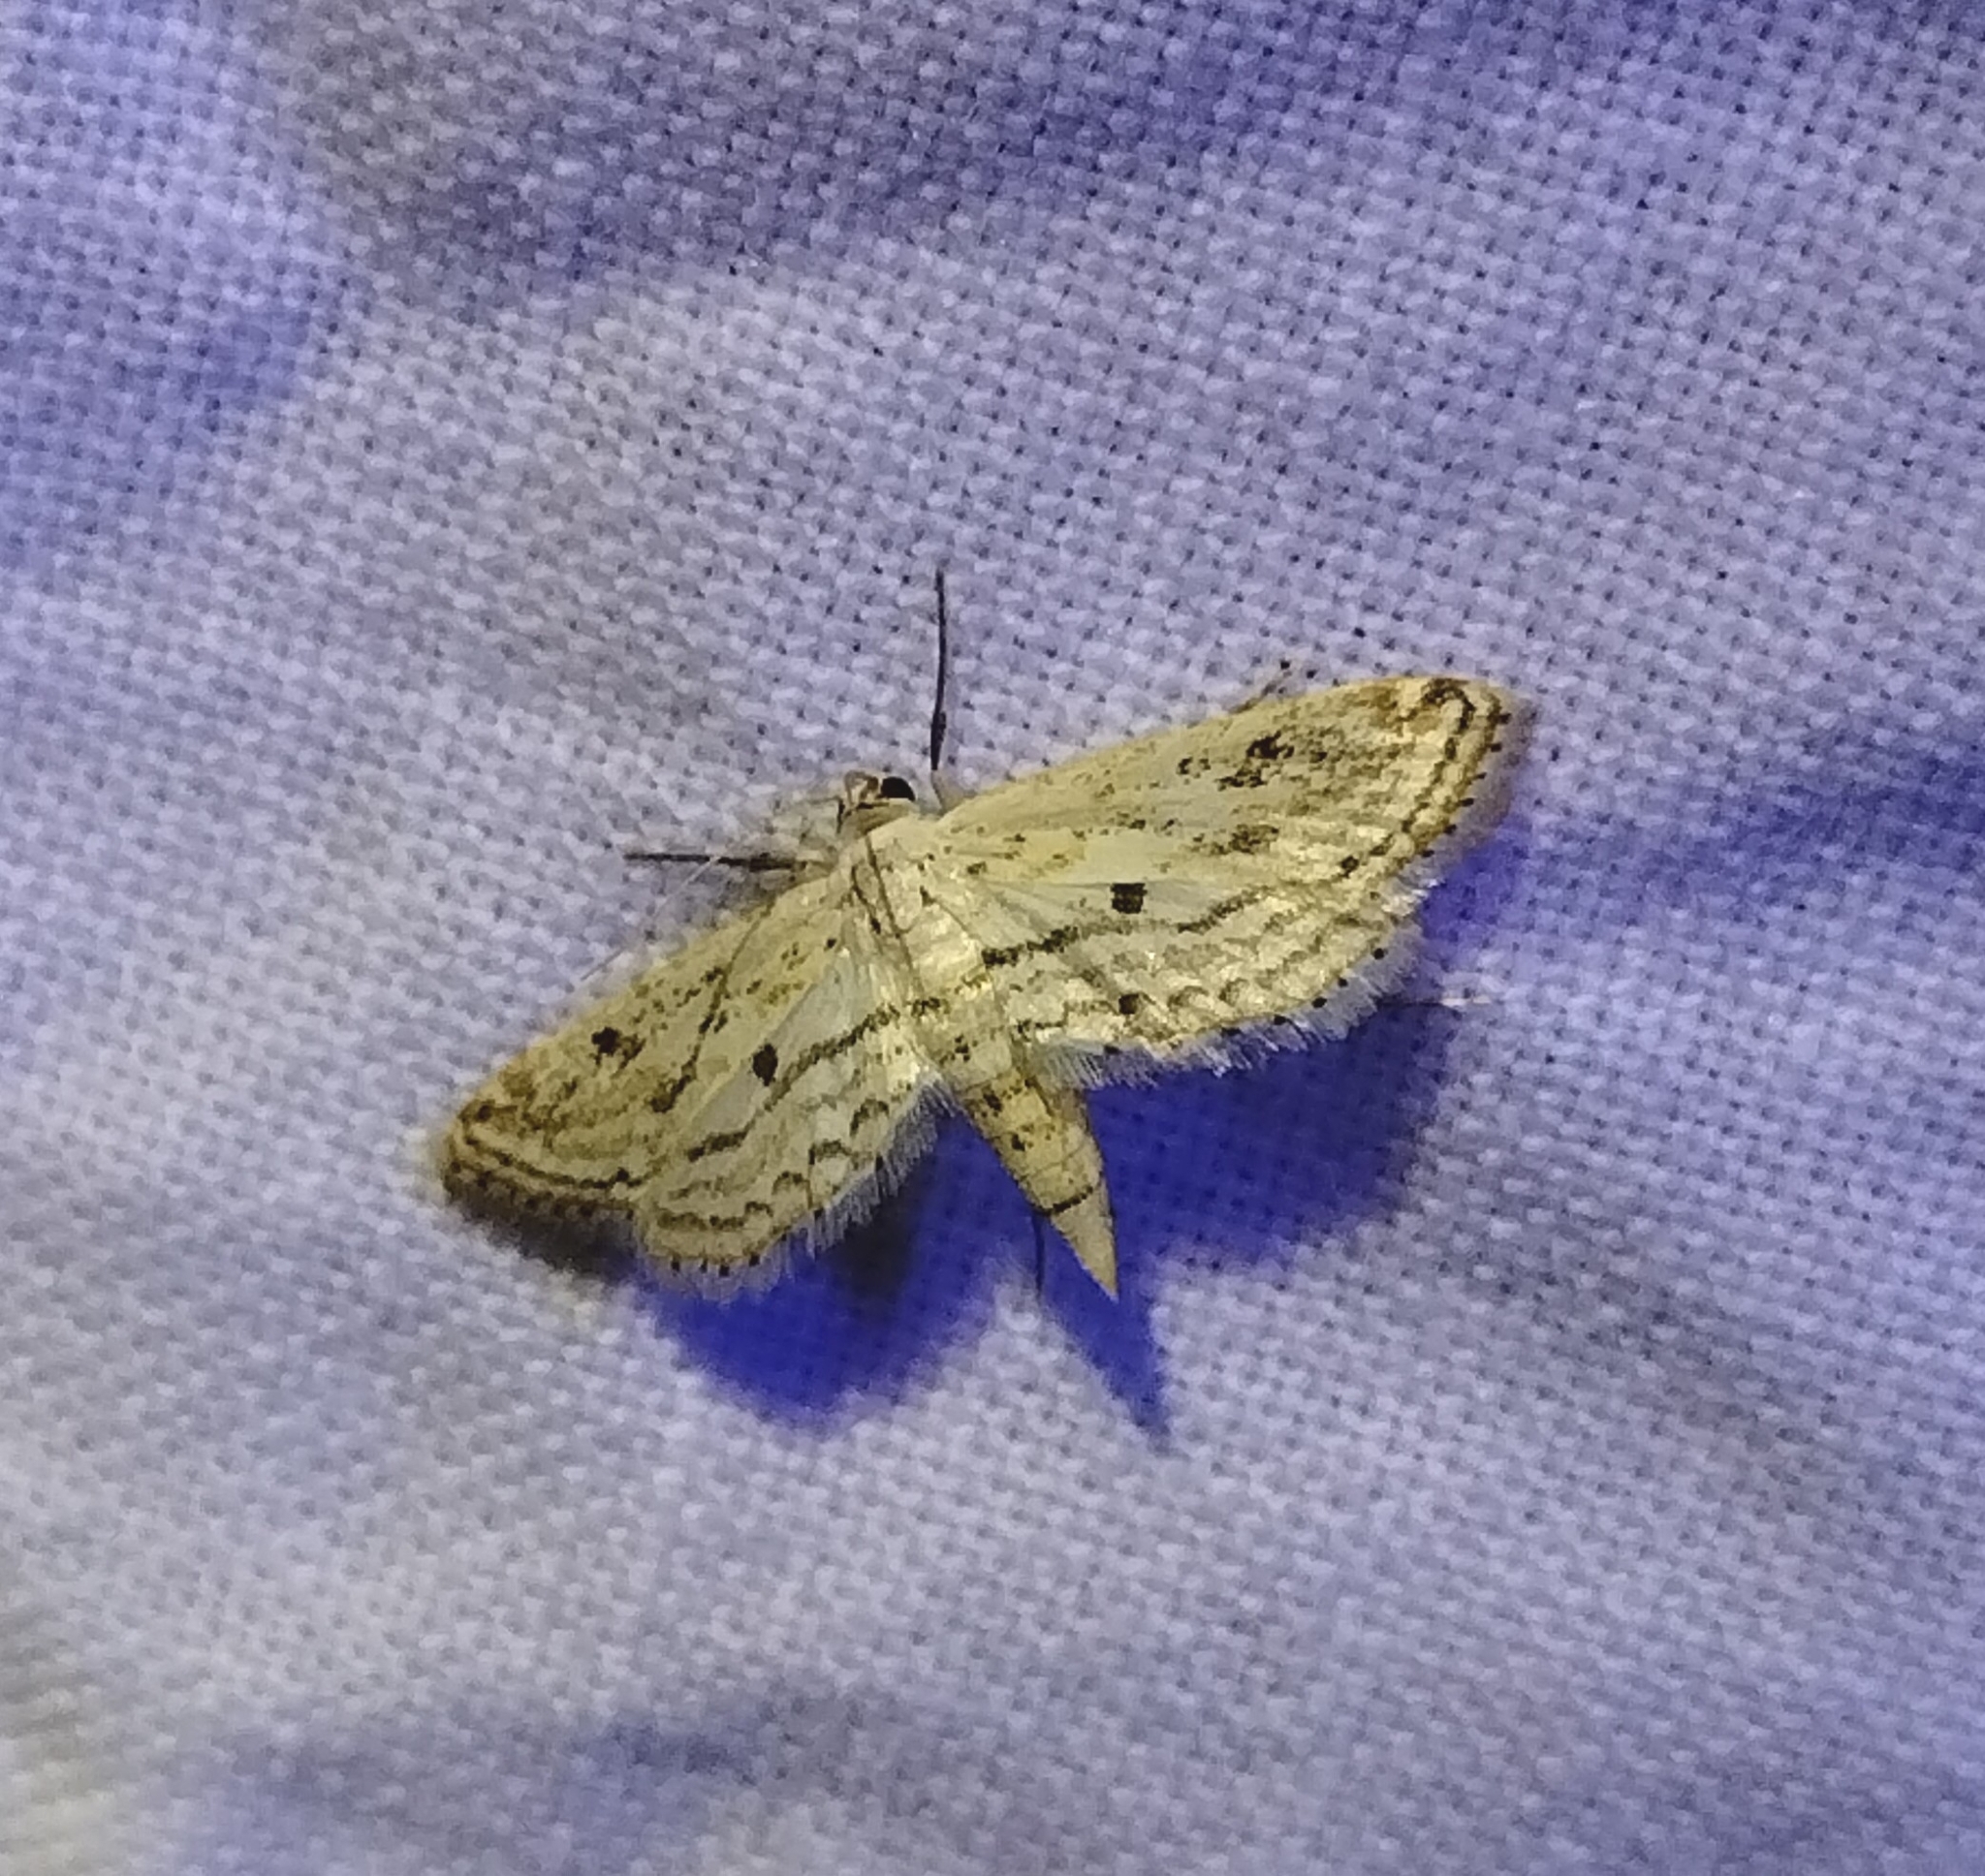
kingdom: Animalia
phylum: Arthropoda
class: Insecta
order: Lepidoptera
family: Crambidae
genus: Parapoynx
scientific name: Parapoynx allionealis
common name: Bladderwort casemaker
